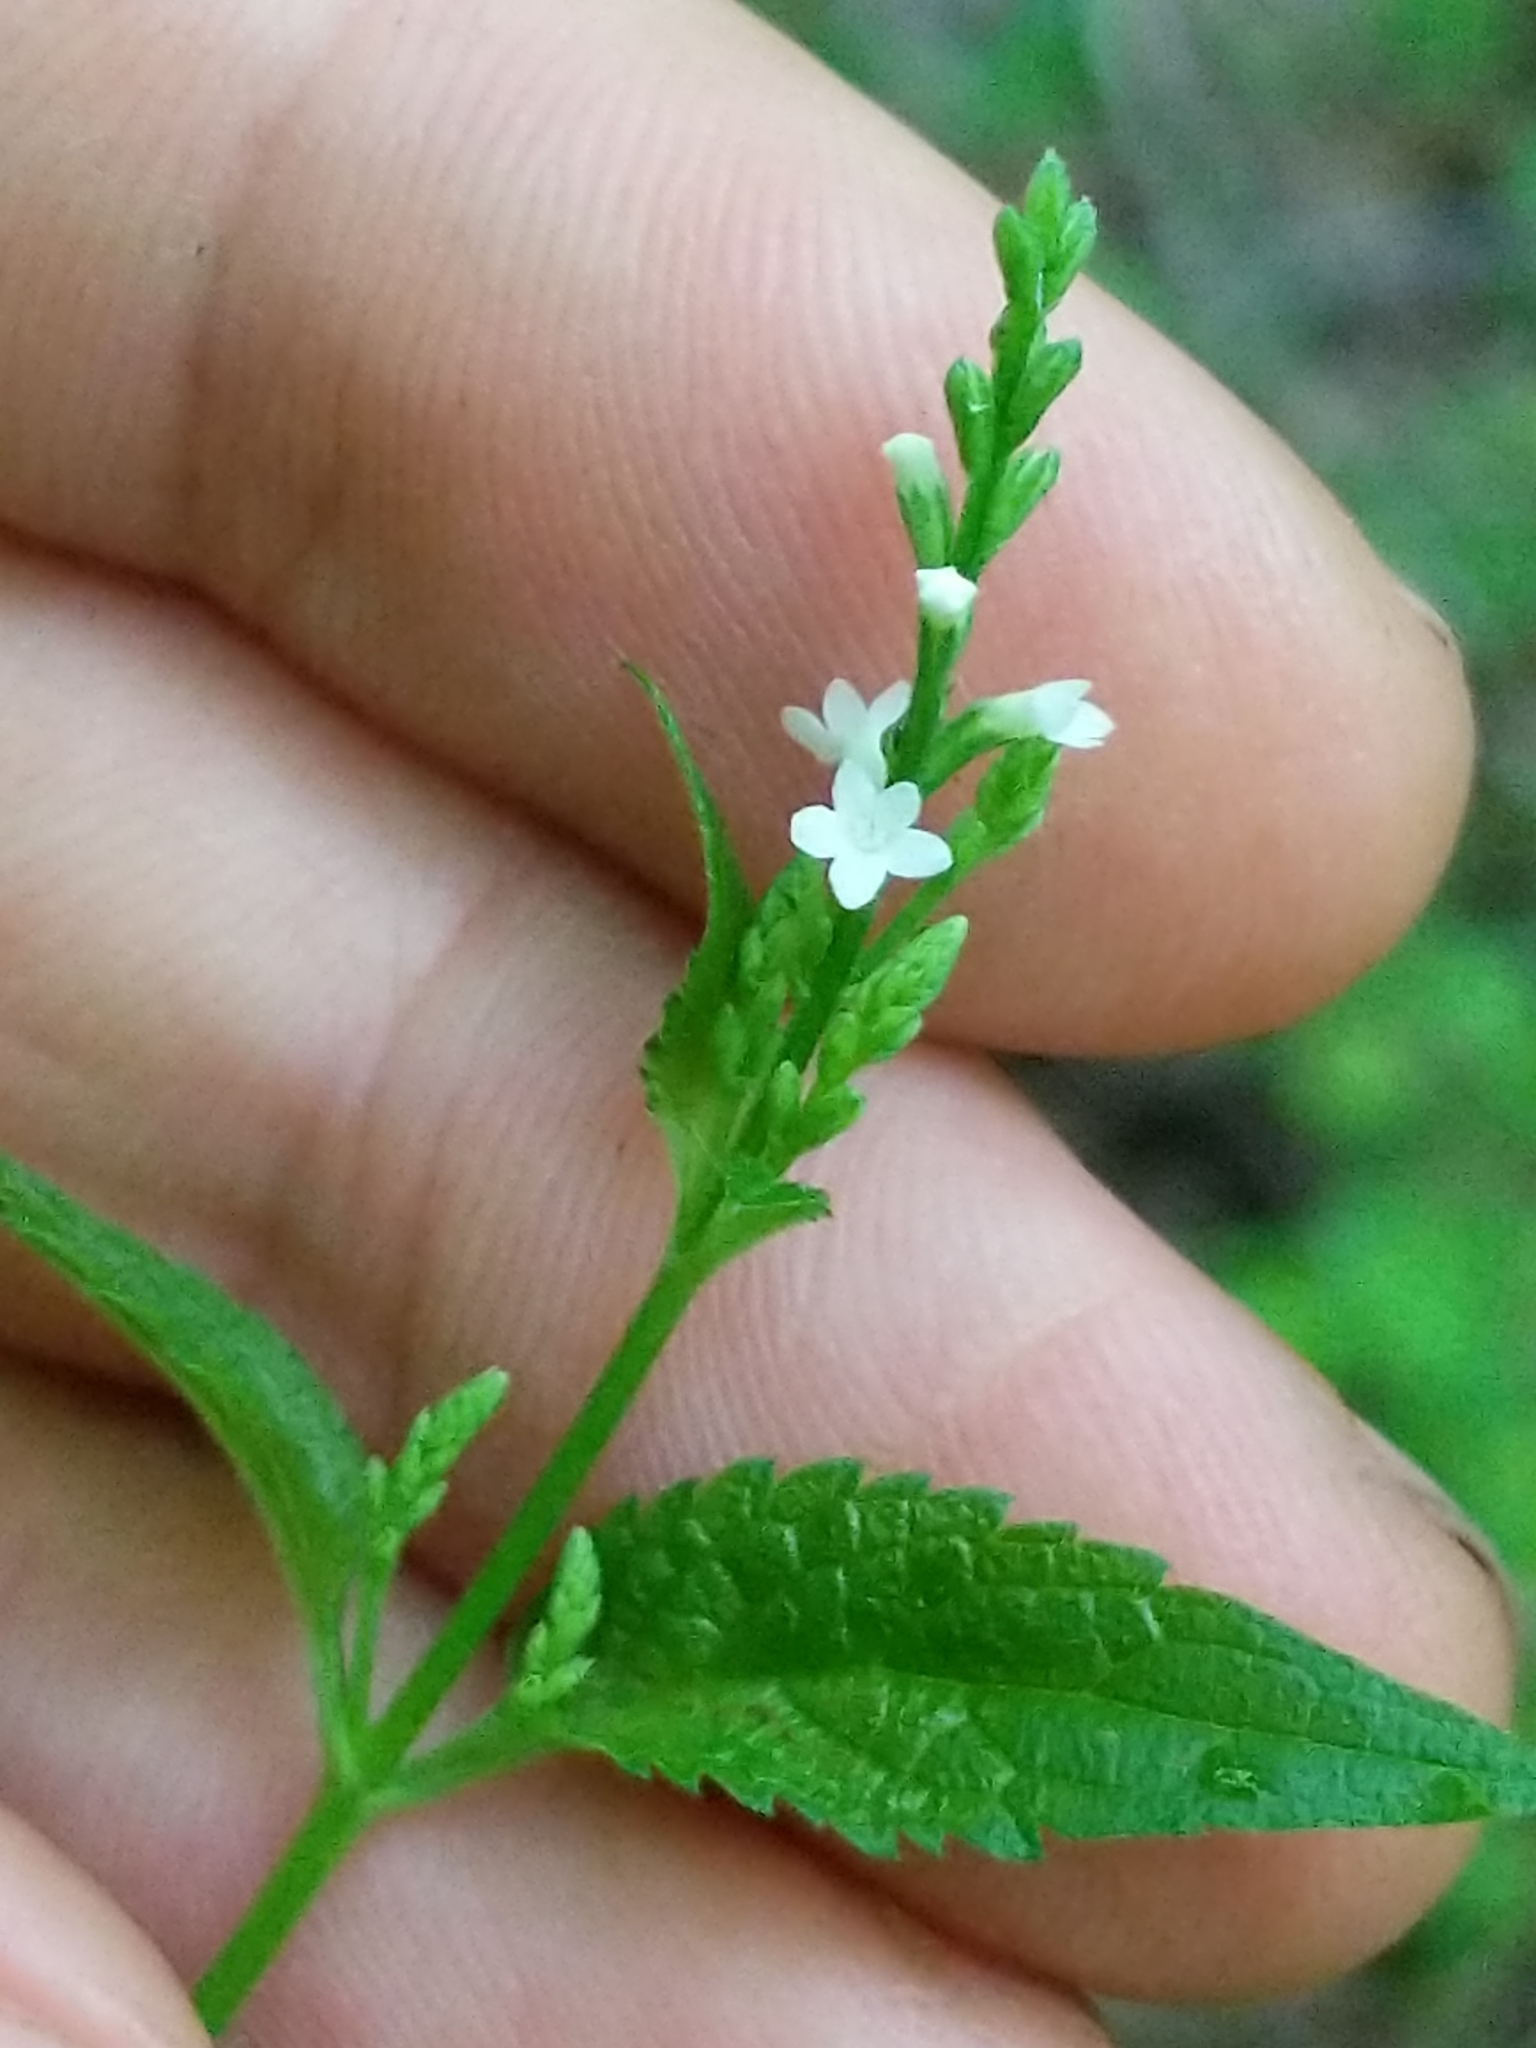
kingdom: Plantae
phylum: Tracheophyta
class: Magnoliopsida
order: Lamiales
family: Verbenaceae
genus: Verbena
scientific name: Verbena urticifolia
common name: Nettle-leaved vervain
